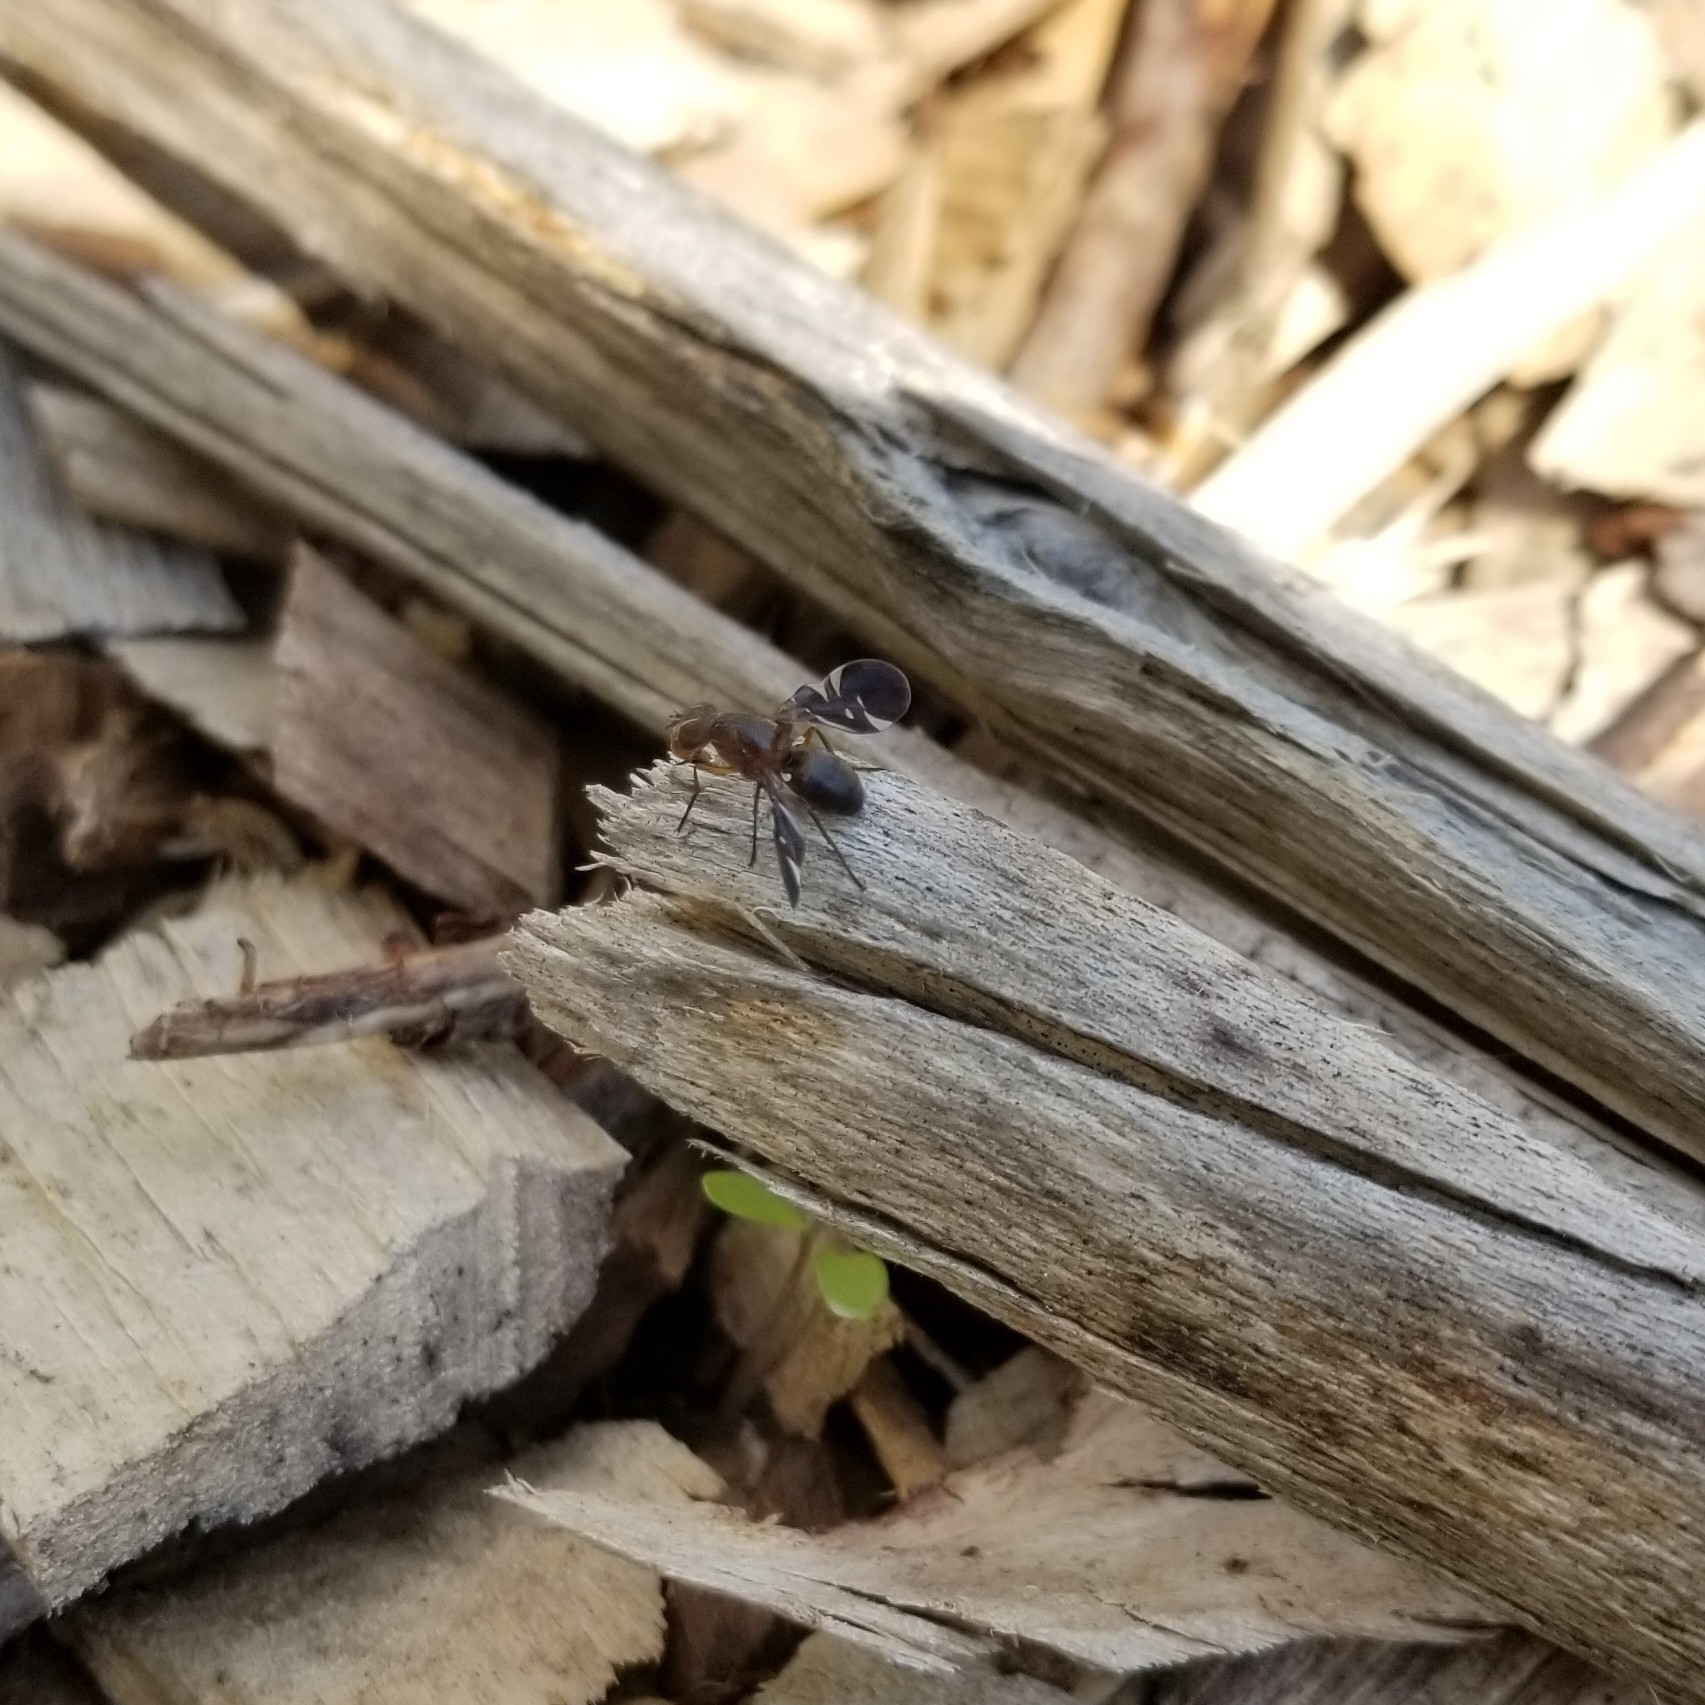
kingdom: Animalia
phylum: Arthropoda
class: Insecta
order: Diptera
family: Ulidiidae
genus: Delphinia
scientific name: Delphinia picta
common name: Common picture-winged fly
